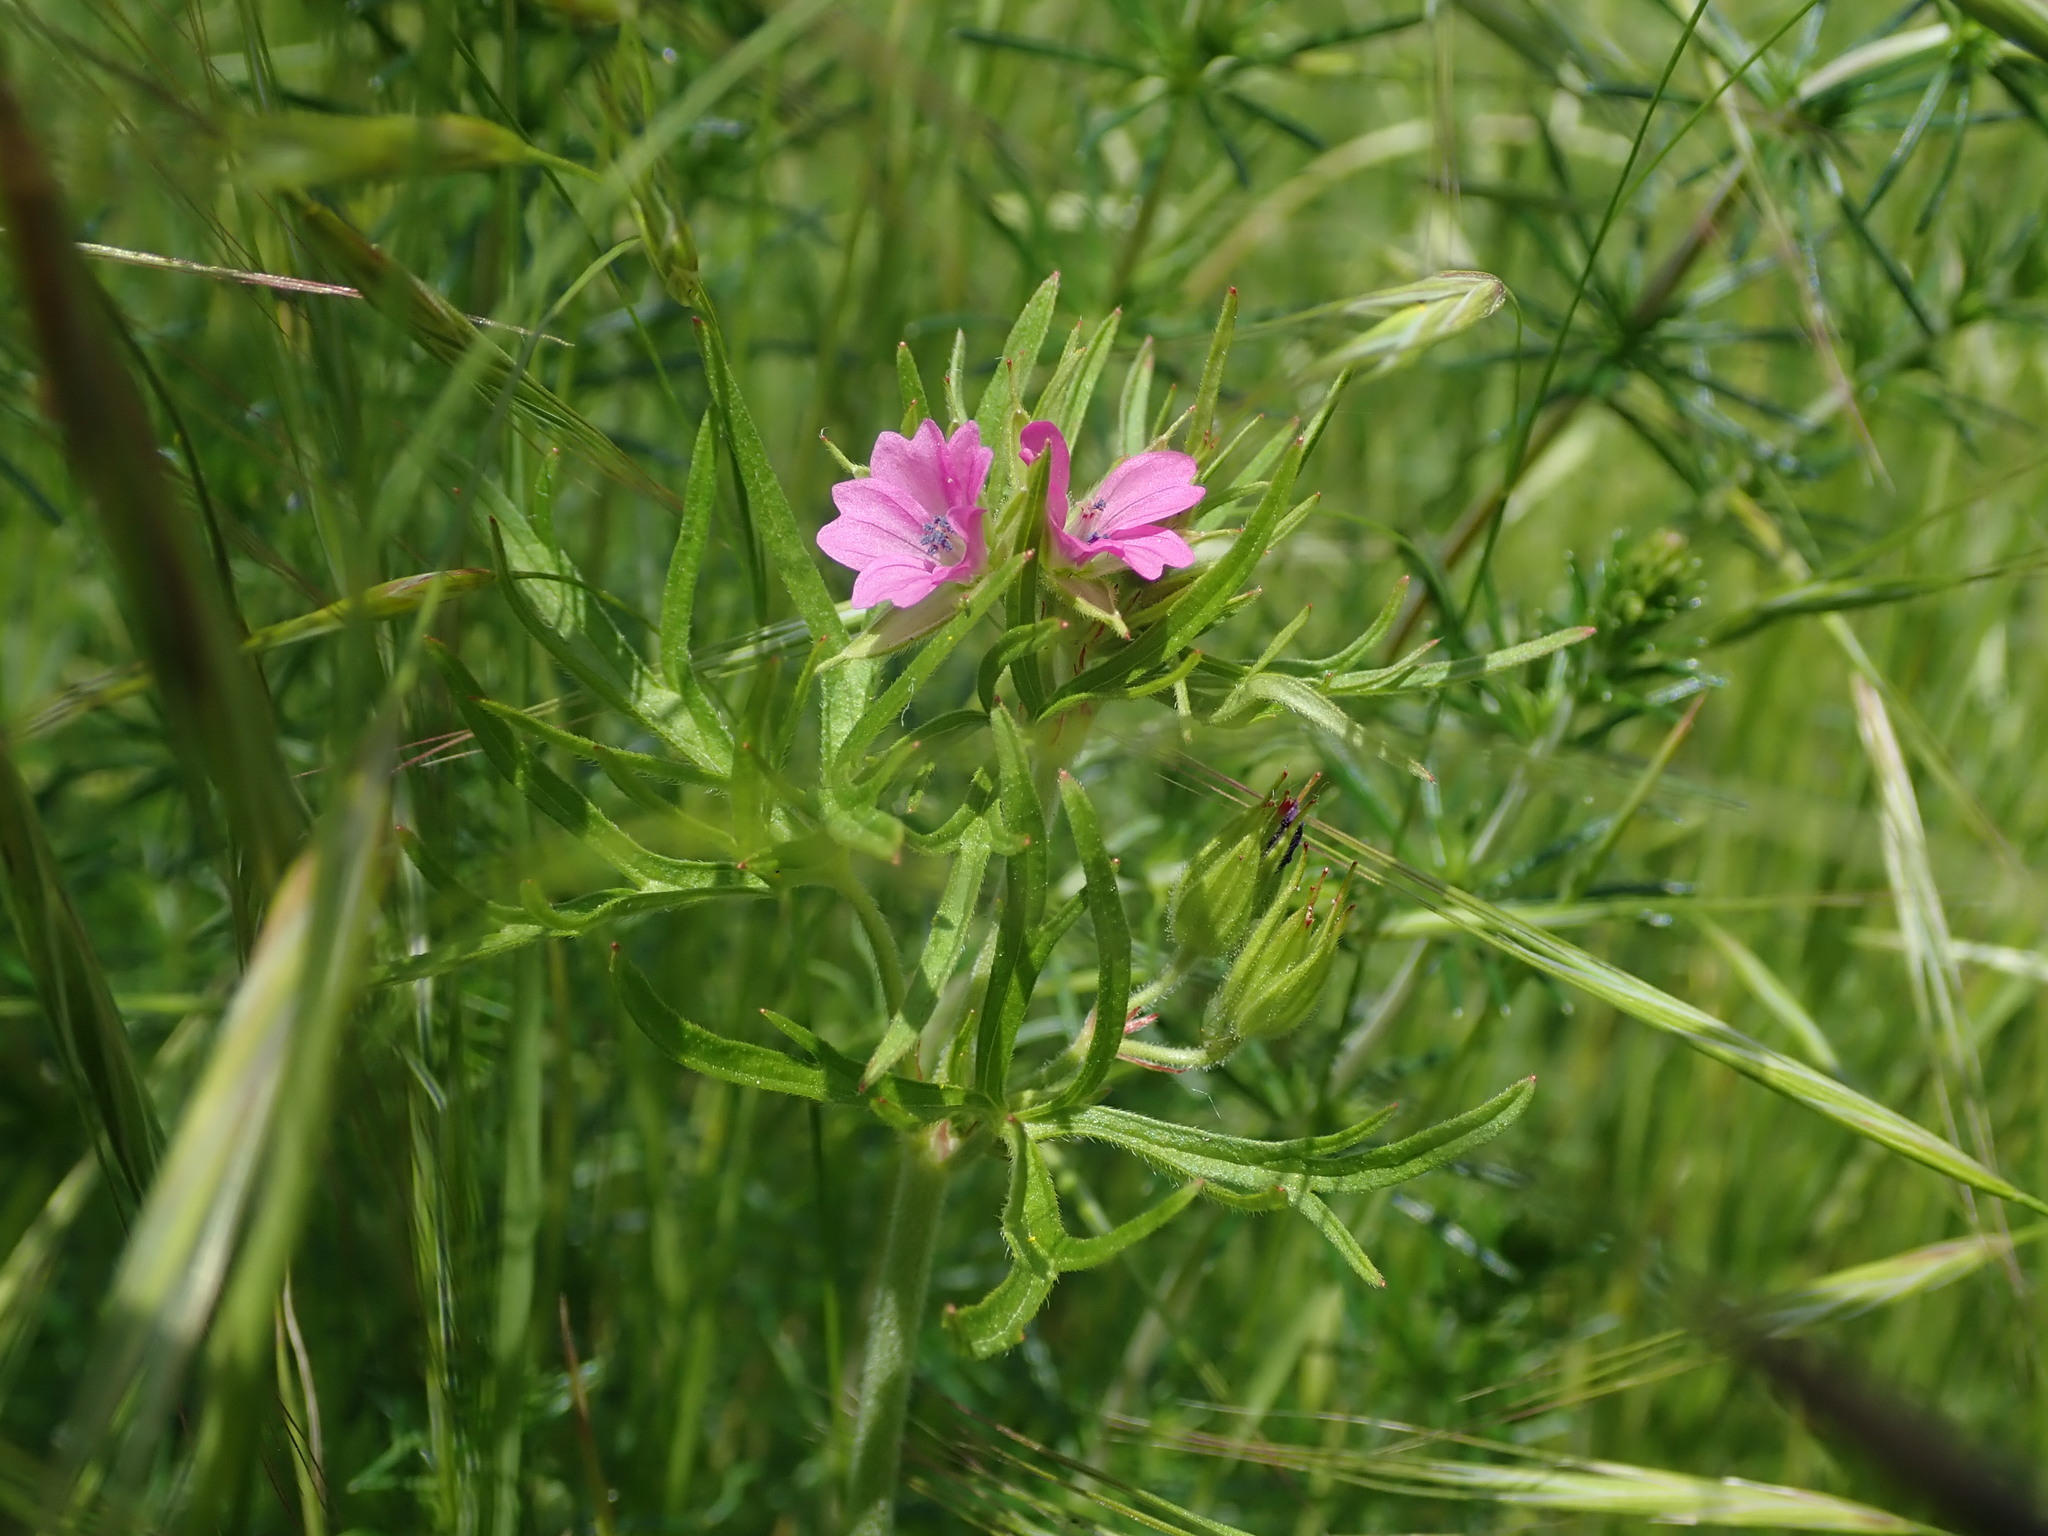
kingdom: Plantae
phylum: Tracheophyta
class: Magnoliopsida
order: Geraniales
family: Geraniaceae
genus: Geranium
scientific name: Geranium dissectum
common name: Cut-leaved crane's-bill
